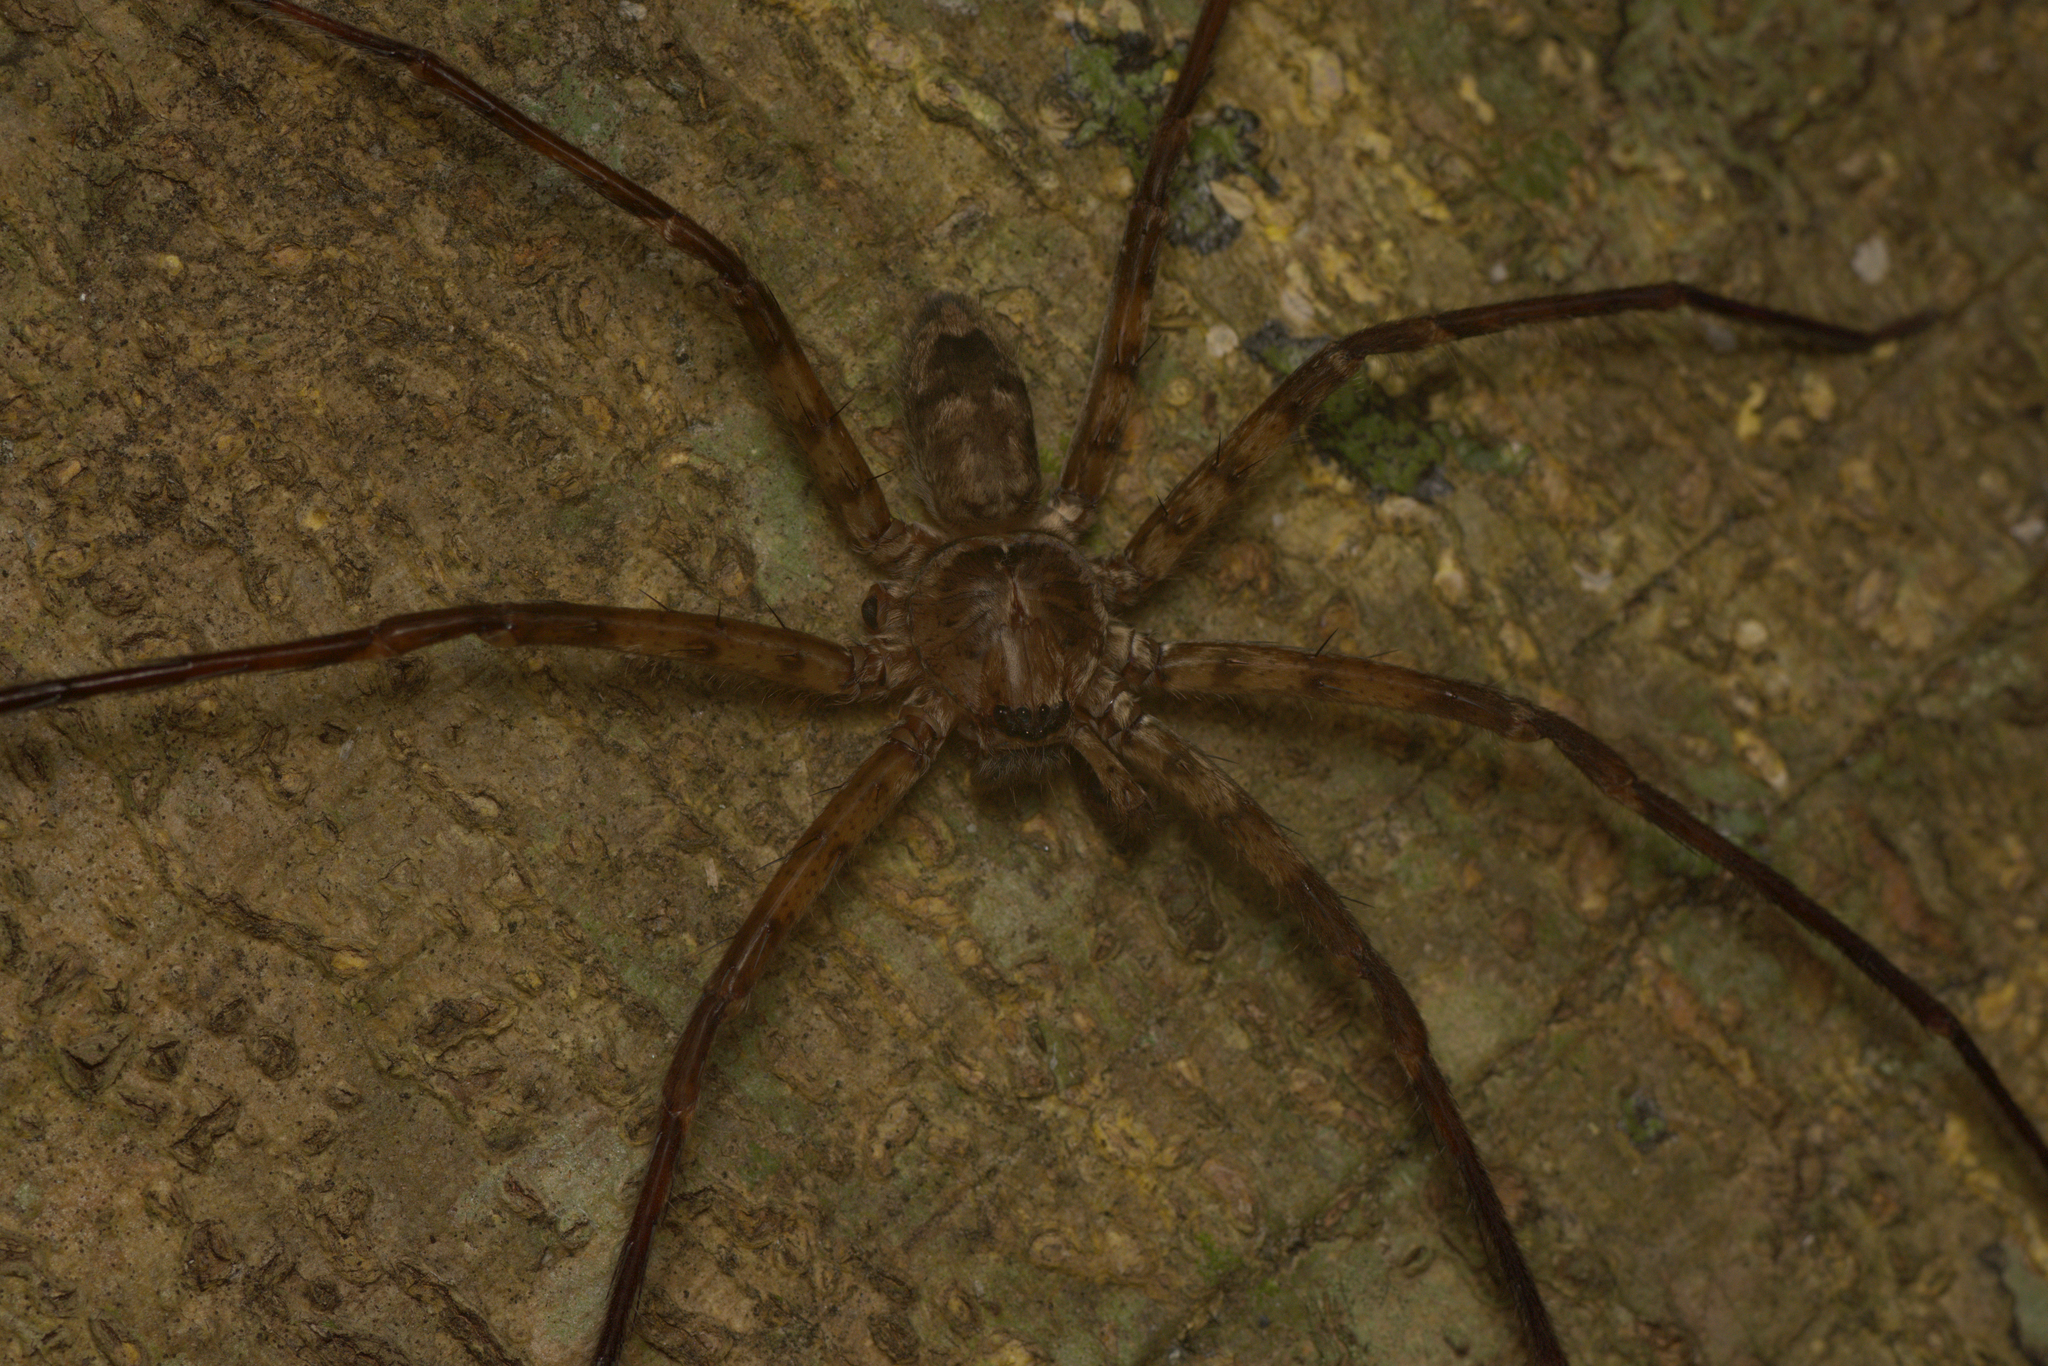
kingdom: Animalia
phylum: Arthropoda
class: Arachnida
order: Araneae
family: Sparassidae
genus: Heteropoda
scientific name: Heteropoda procera
